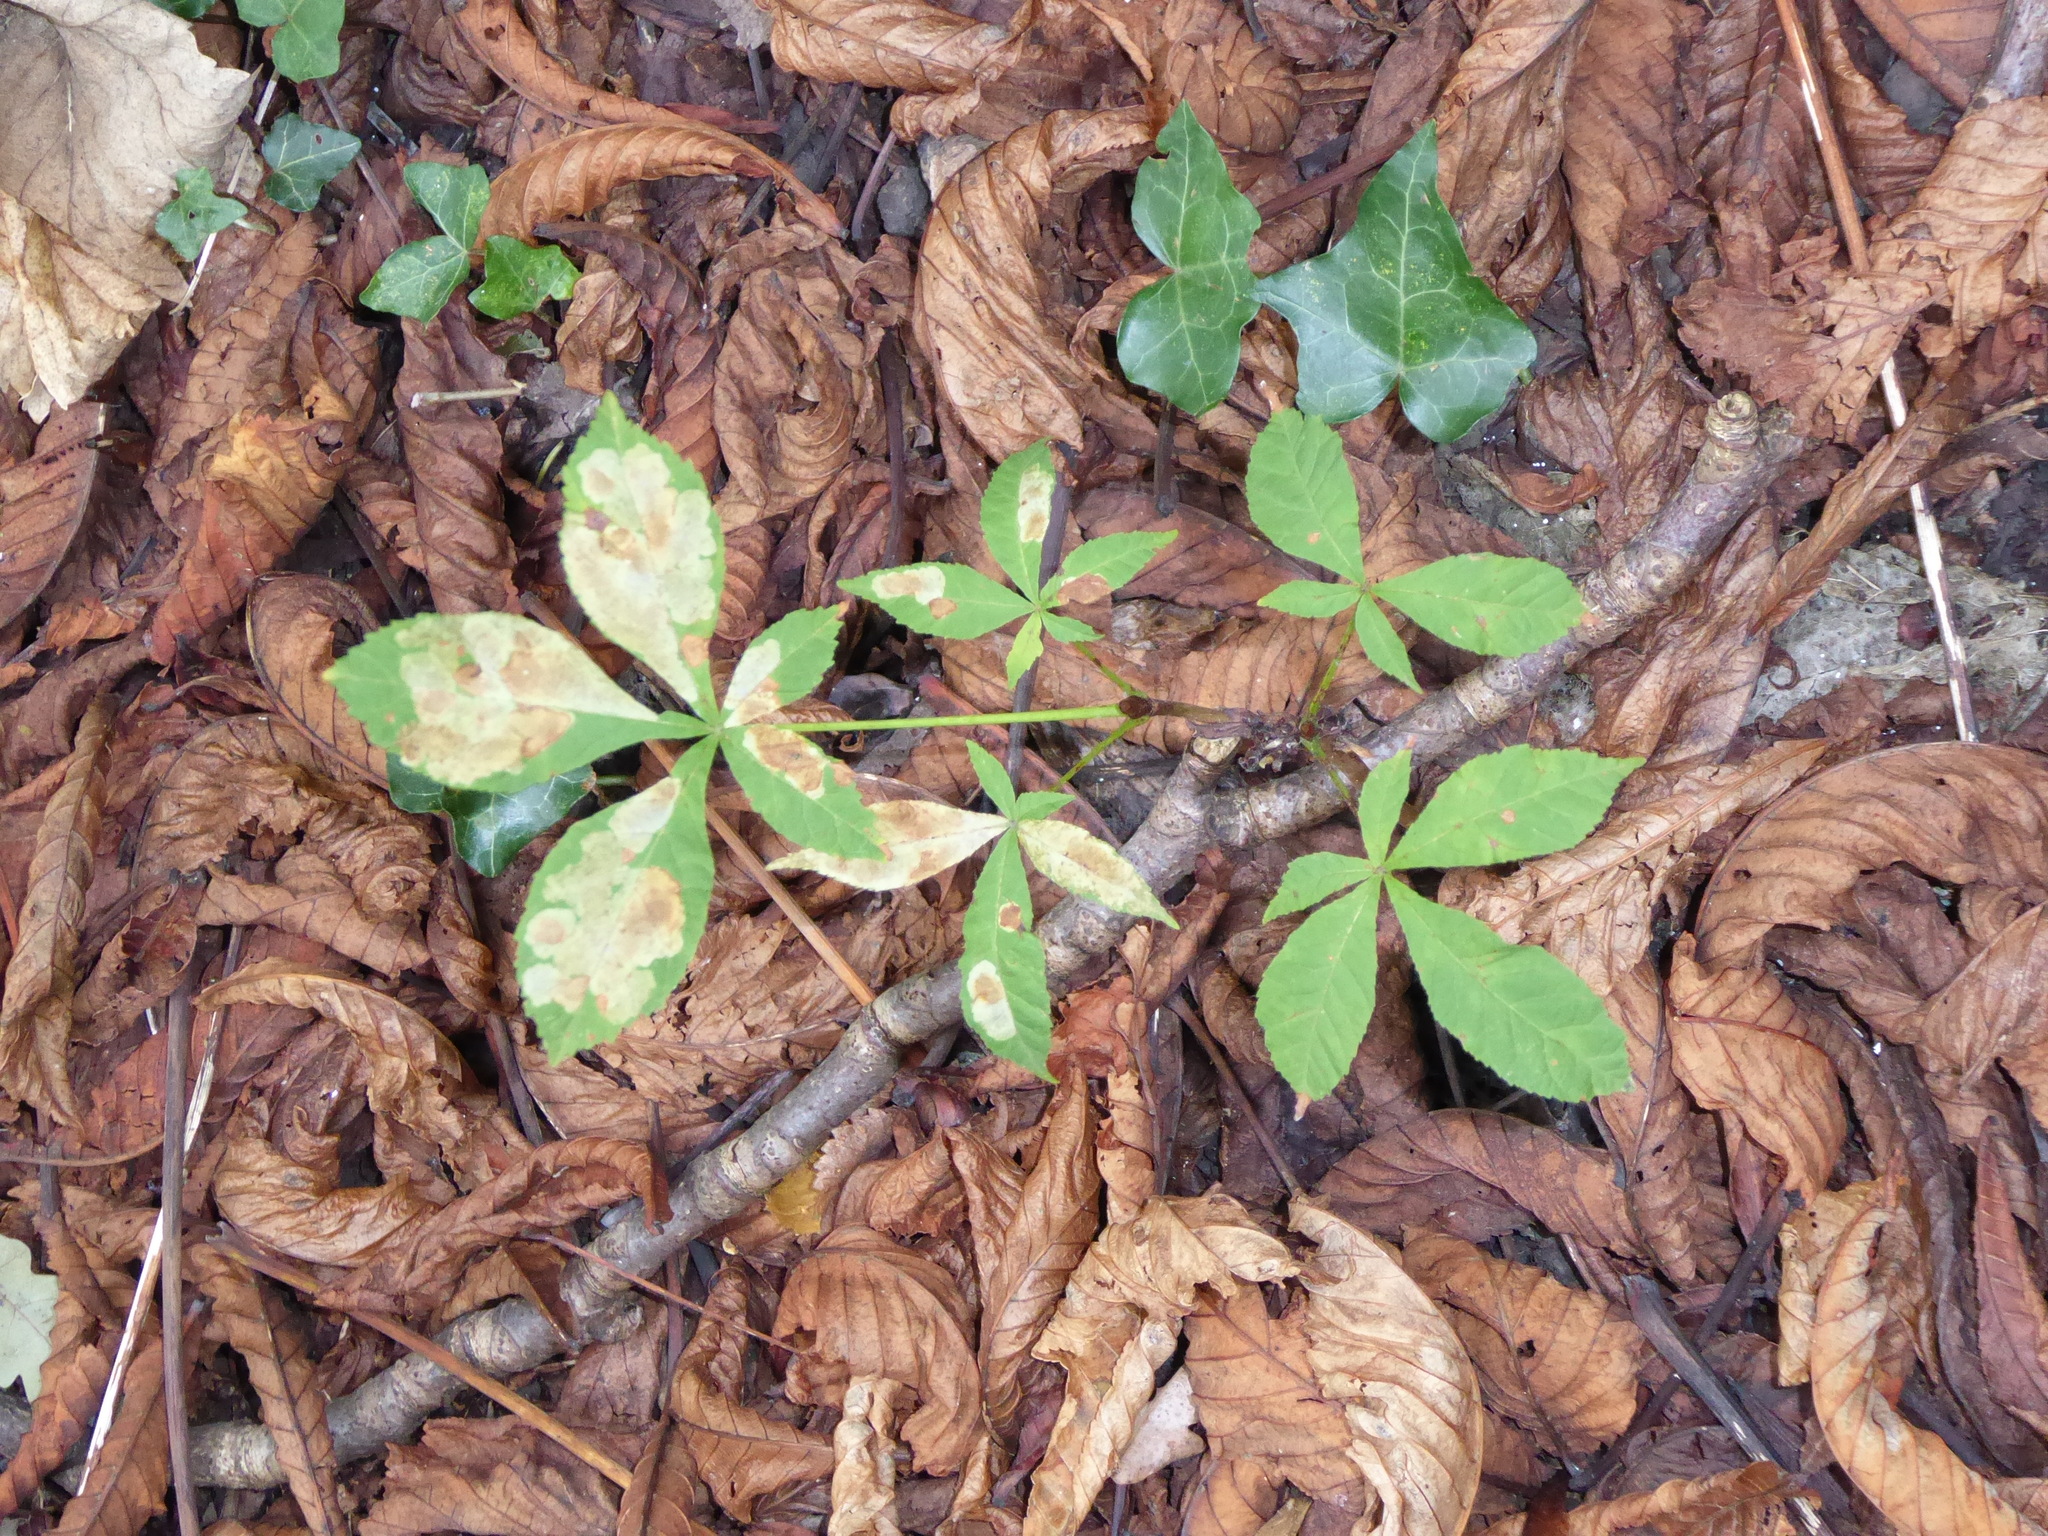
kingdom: Plantae
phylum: Tracheophyta
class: Magnoliopsida
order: Sapindales
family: Sapindaceae
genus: Aesculus
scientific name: Aesculus hippocastanum
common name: Horse-chestnut
